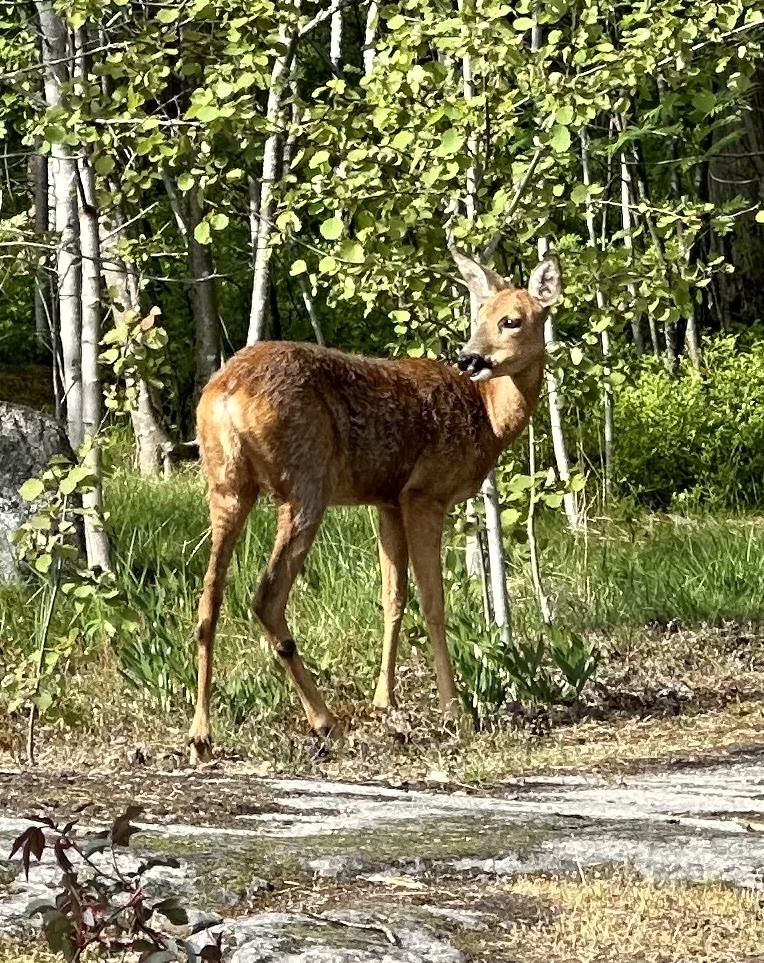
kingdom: Animalia
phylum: Chordata
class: Mammalia
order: Artiodactyla
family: Cervidae
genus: Capreolus
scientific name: Capreolus capreolus
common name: Western roe deer
